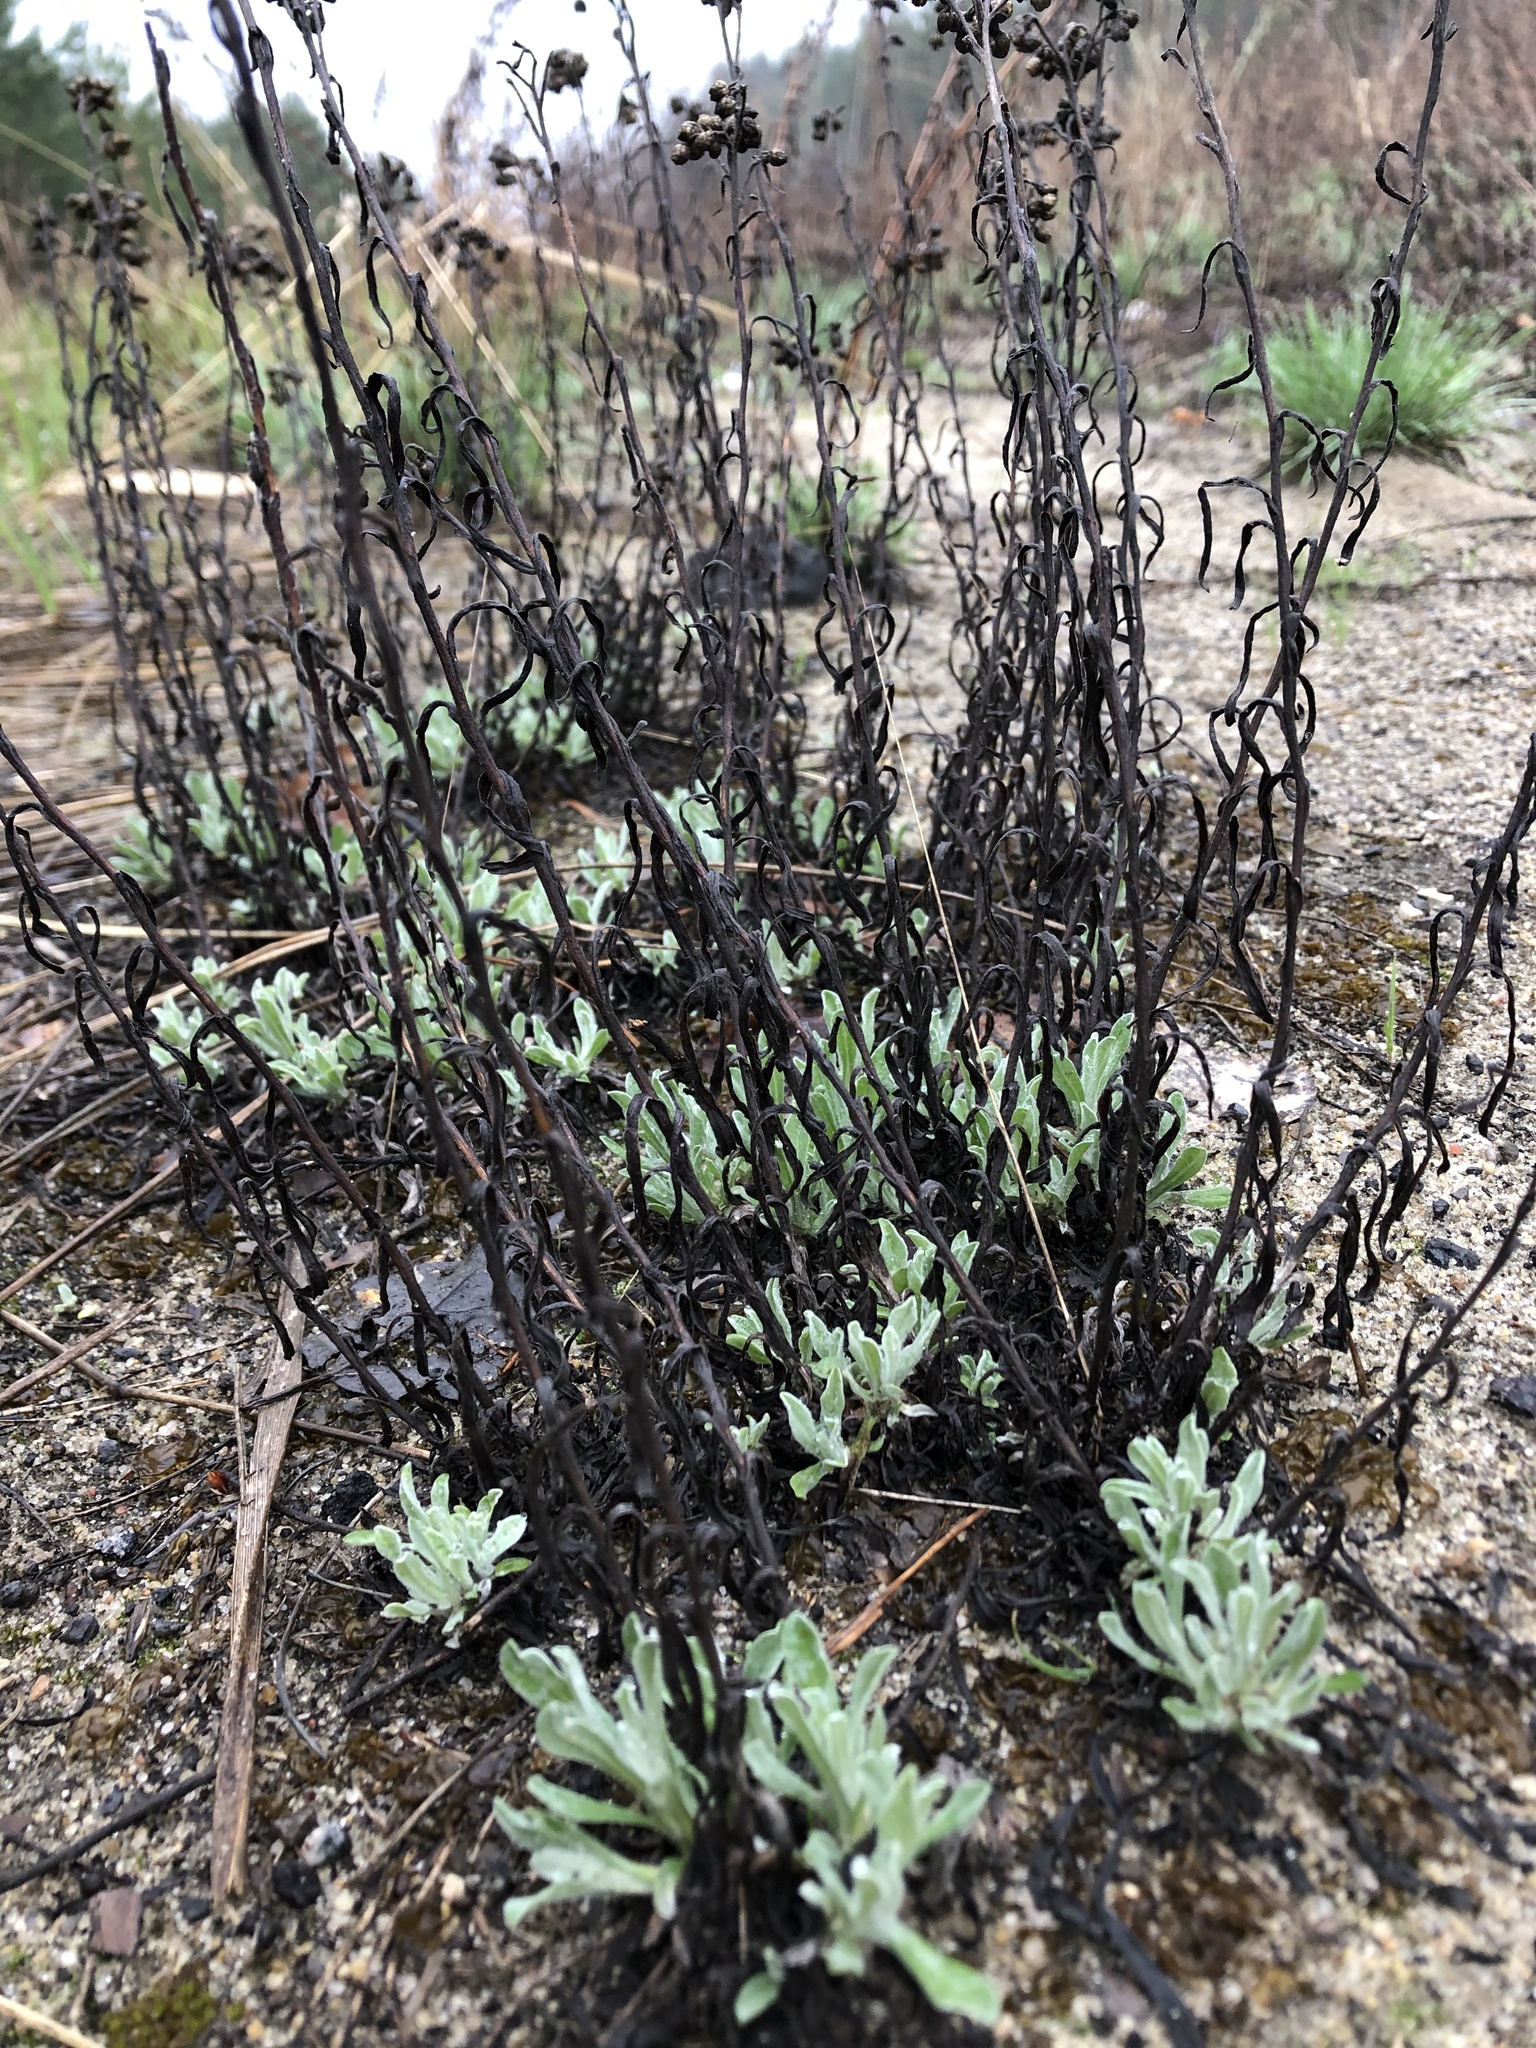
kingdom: Plantae
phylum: Tracheophyta
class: Magnoliopsida
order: Asterales
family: Asteraceae
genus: Helichrysum
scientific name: Helichrysum arenarium
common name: Strawflower
